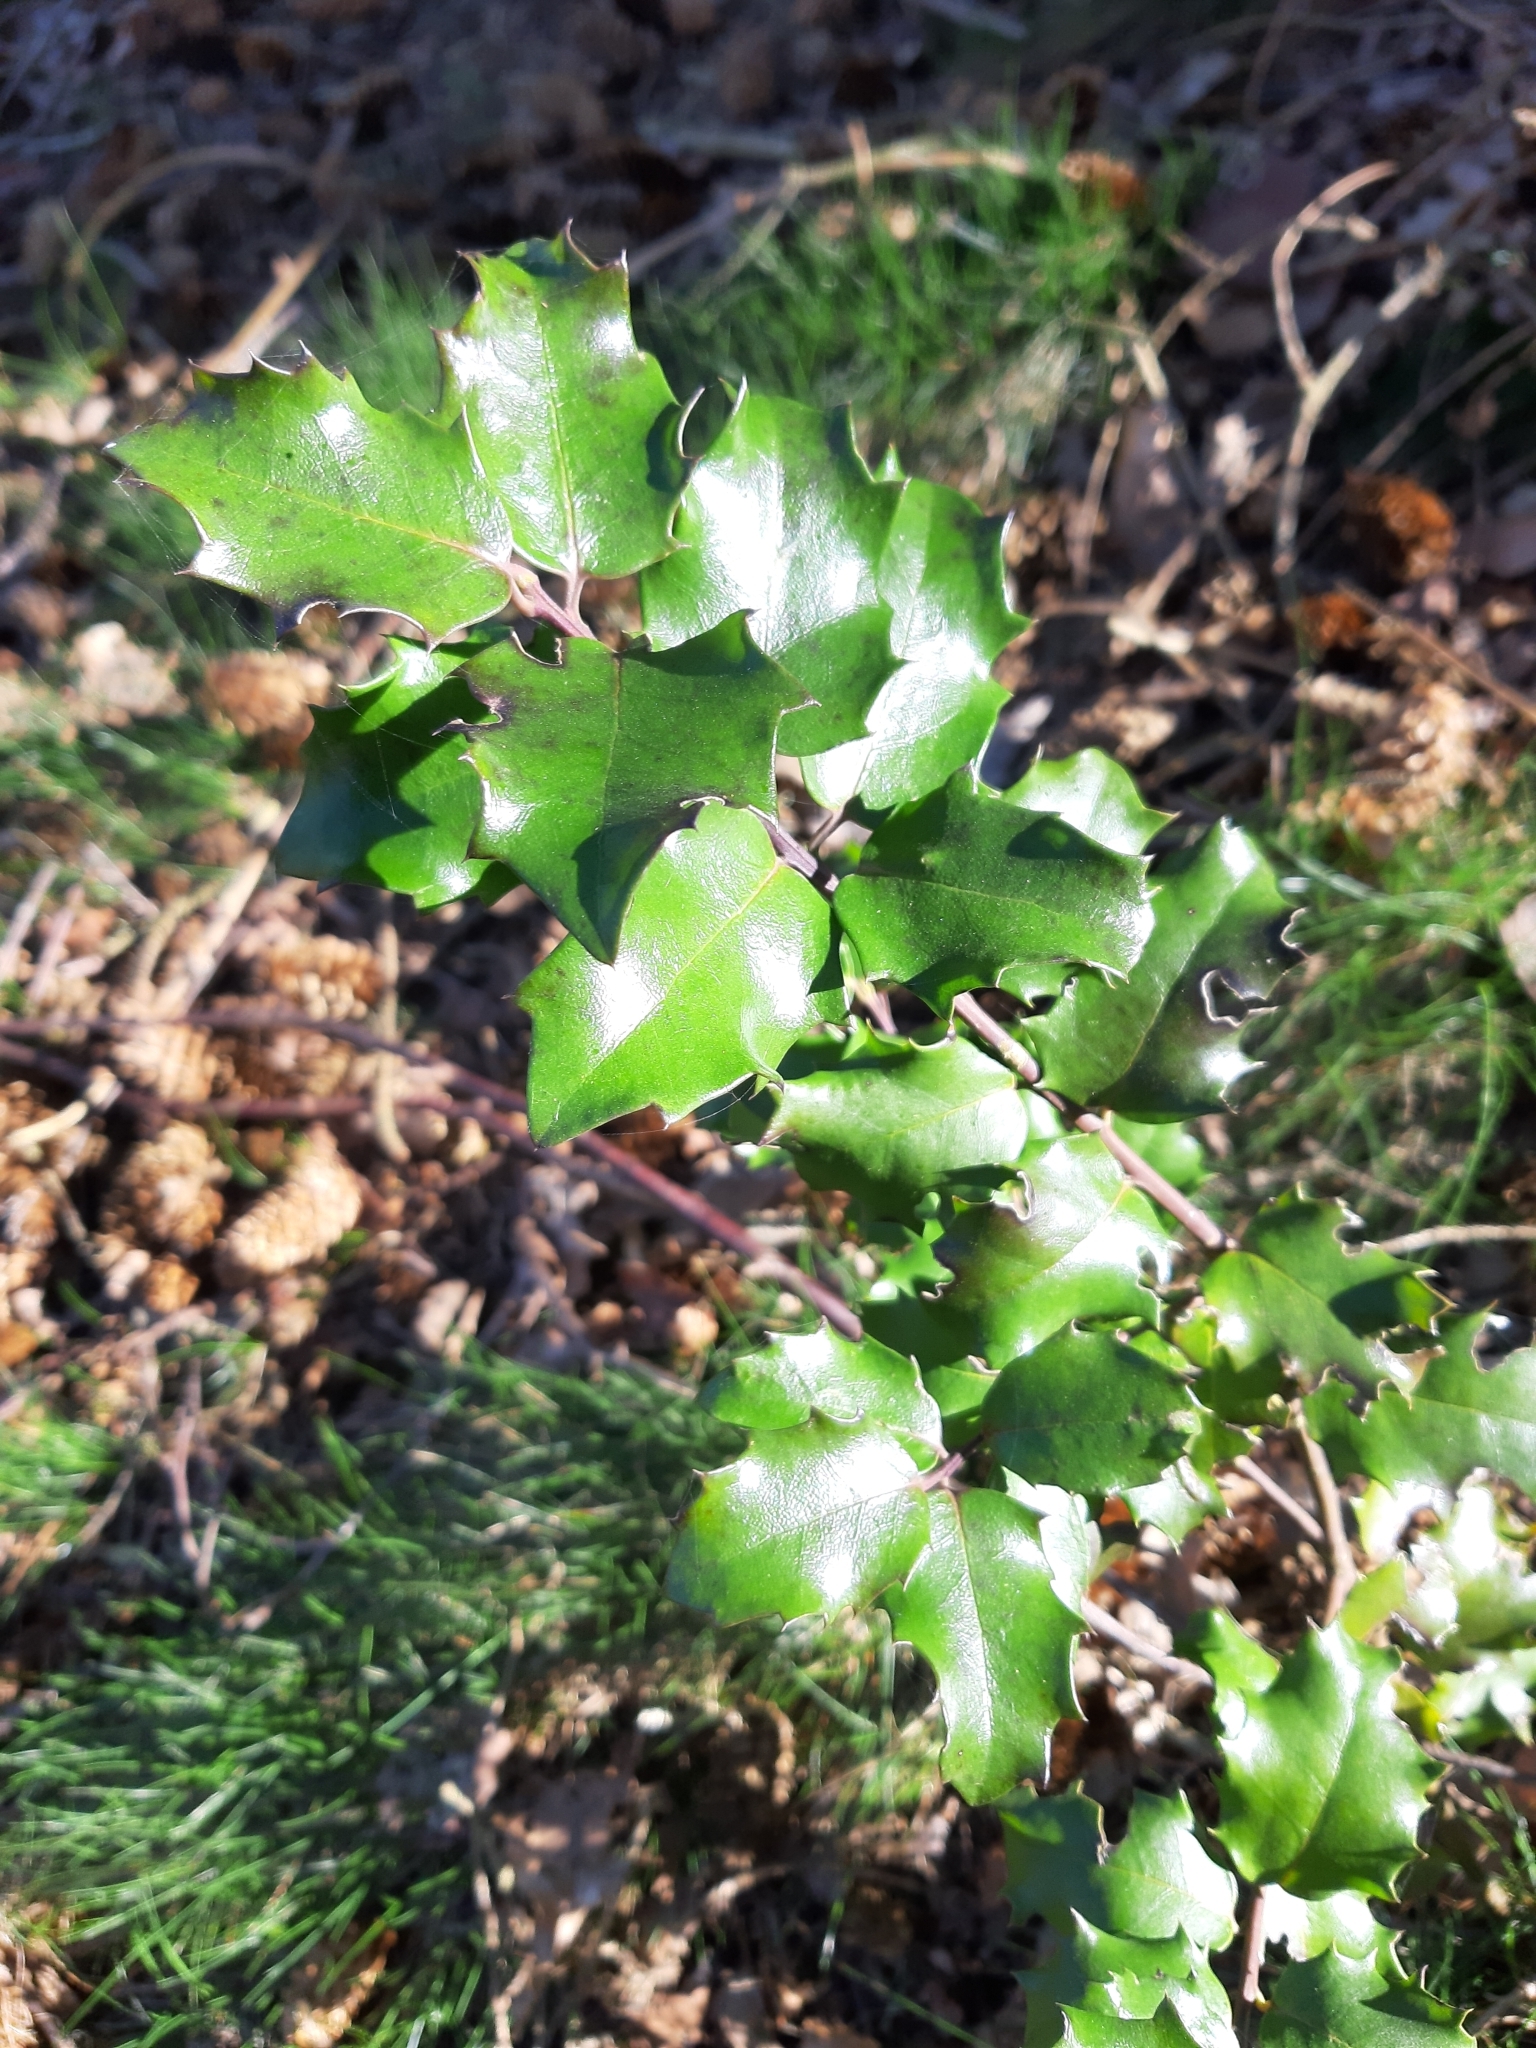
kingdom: Plantae
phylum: Tracheophyta
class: Magnoliopsida
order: Aquifoliales
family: Aquifoliaceae
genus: Ilex
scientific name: Ilex aquifolium
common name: English holly
